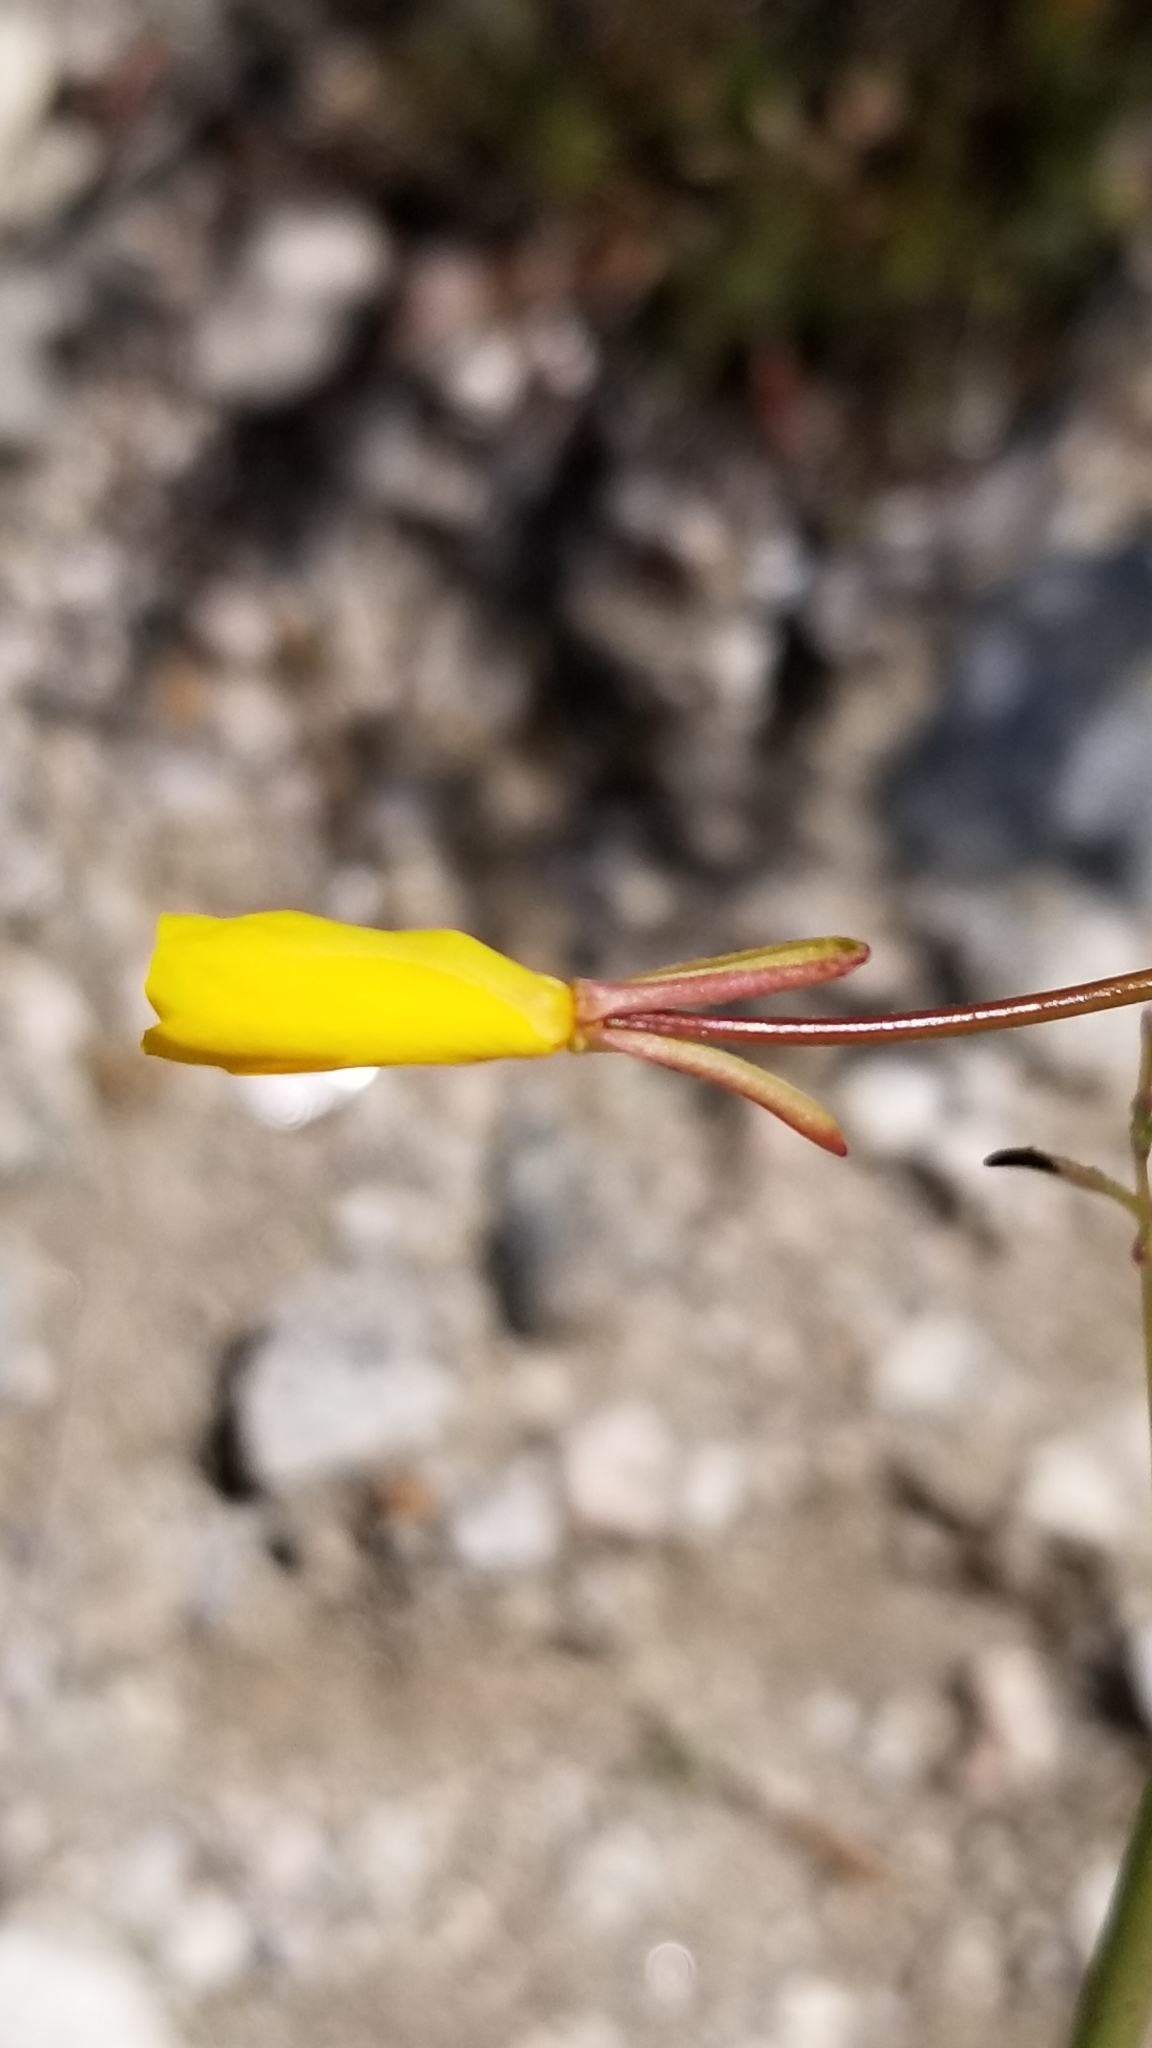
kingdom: Plantae
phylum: Tracheophyta
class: Magnoliopsida
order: Myrtales
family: Onagraceae
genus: Eulobus
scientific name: Eulobus californicus
